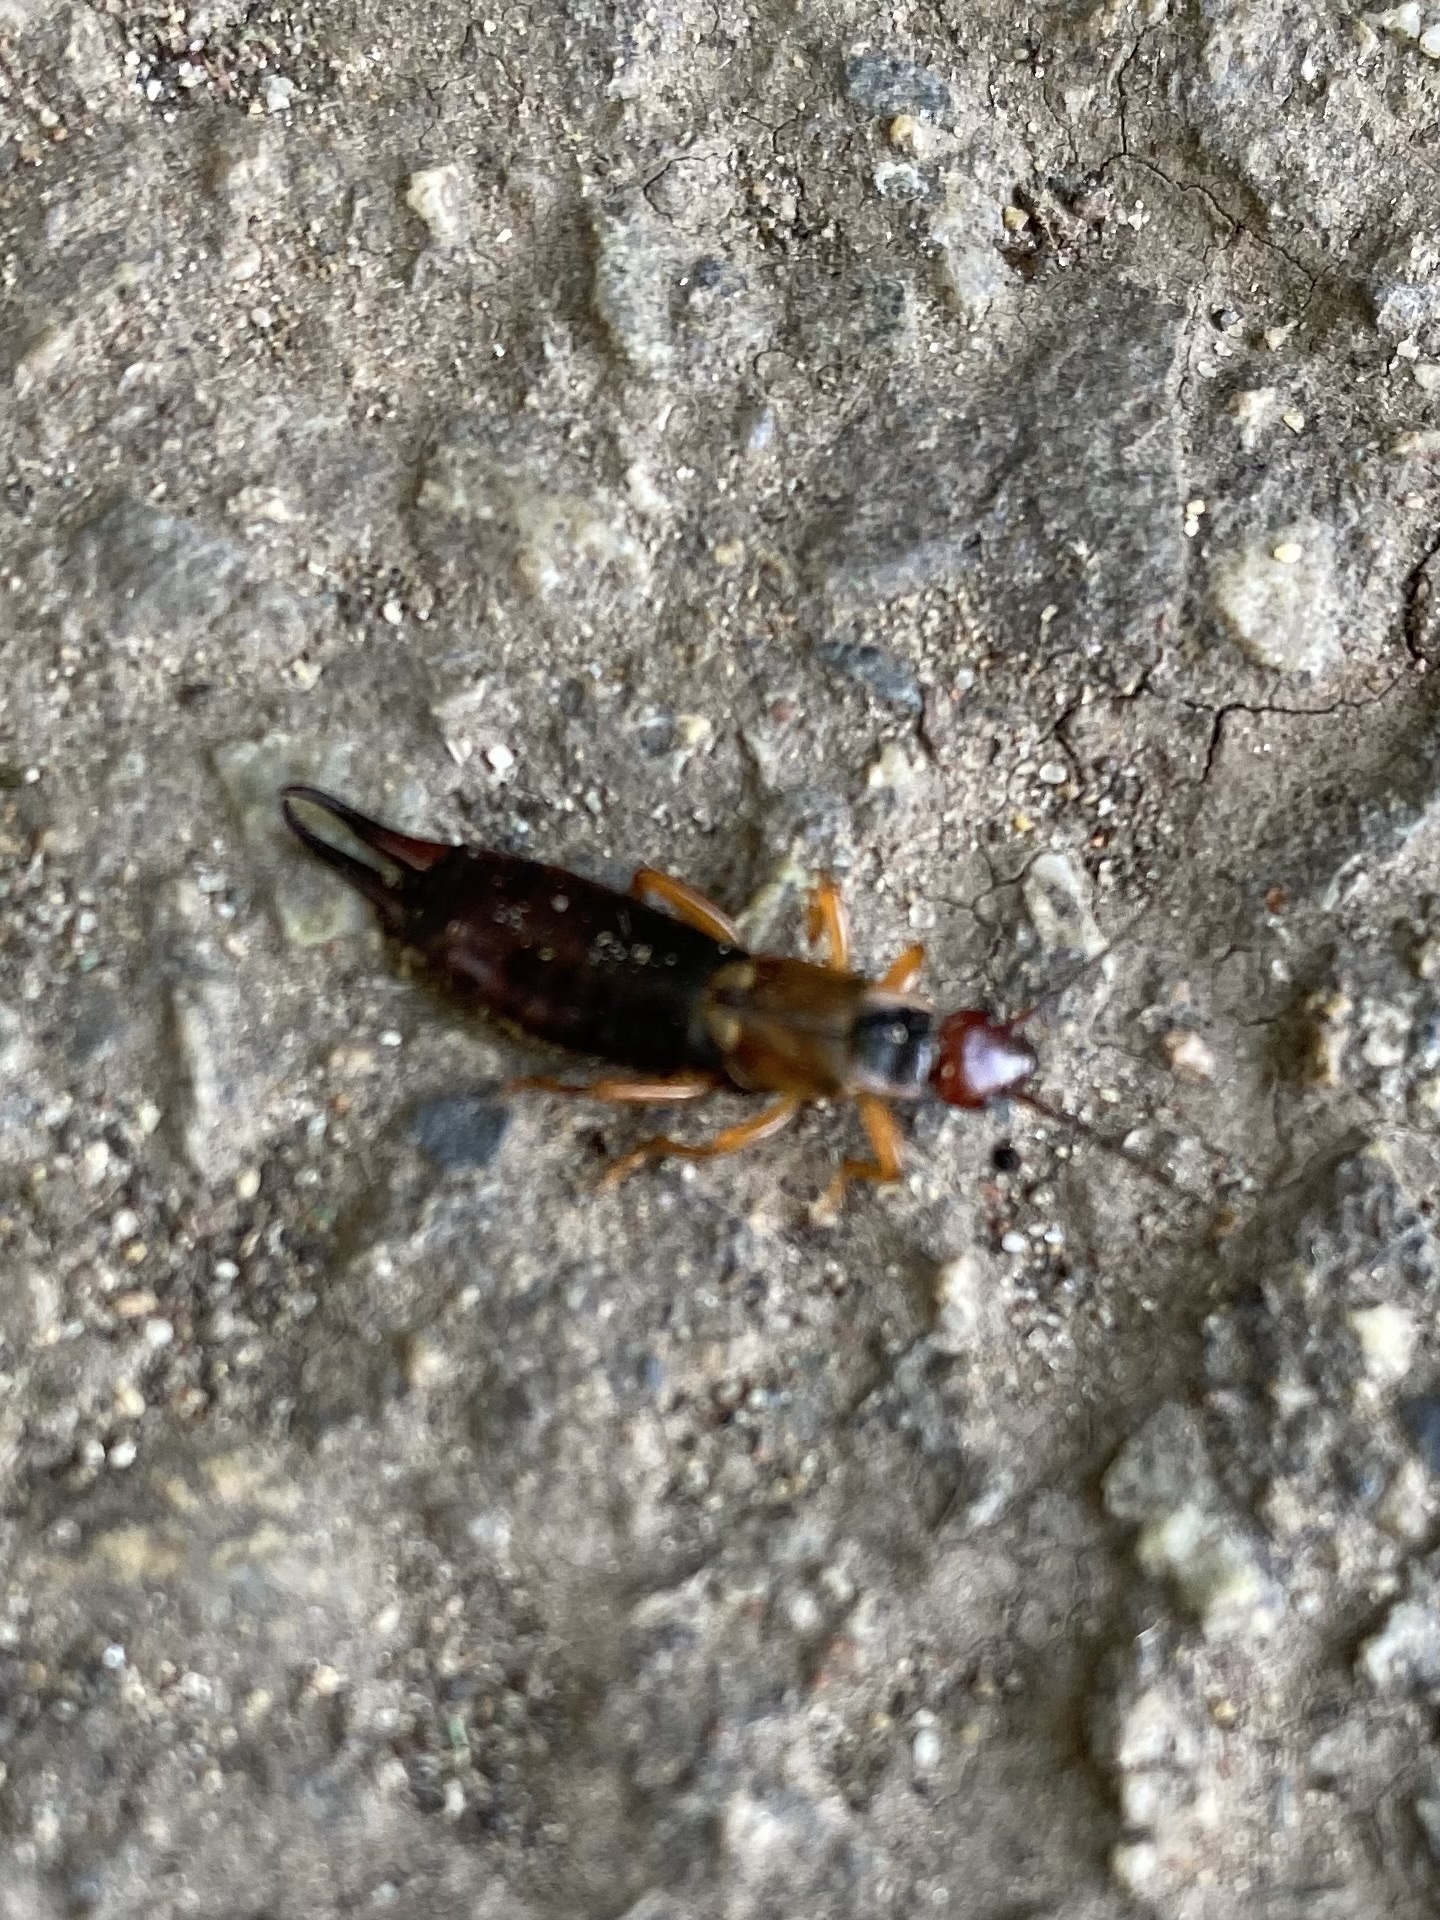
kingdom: Animalia
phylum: Arthropoda
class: Insecta
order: Dermaptera
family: Forficulidae
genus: Forficula
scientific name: Forficula auricularia
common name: European earwig
